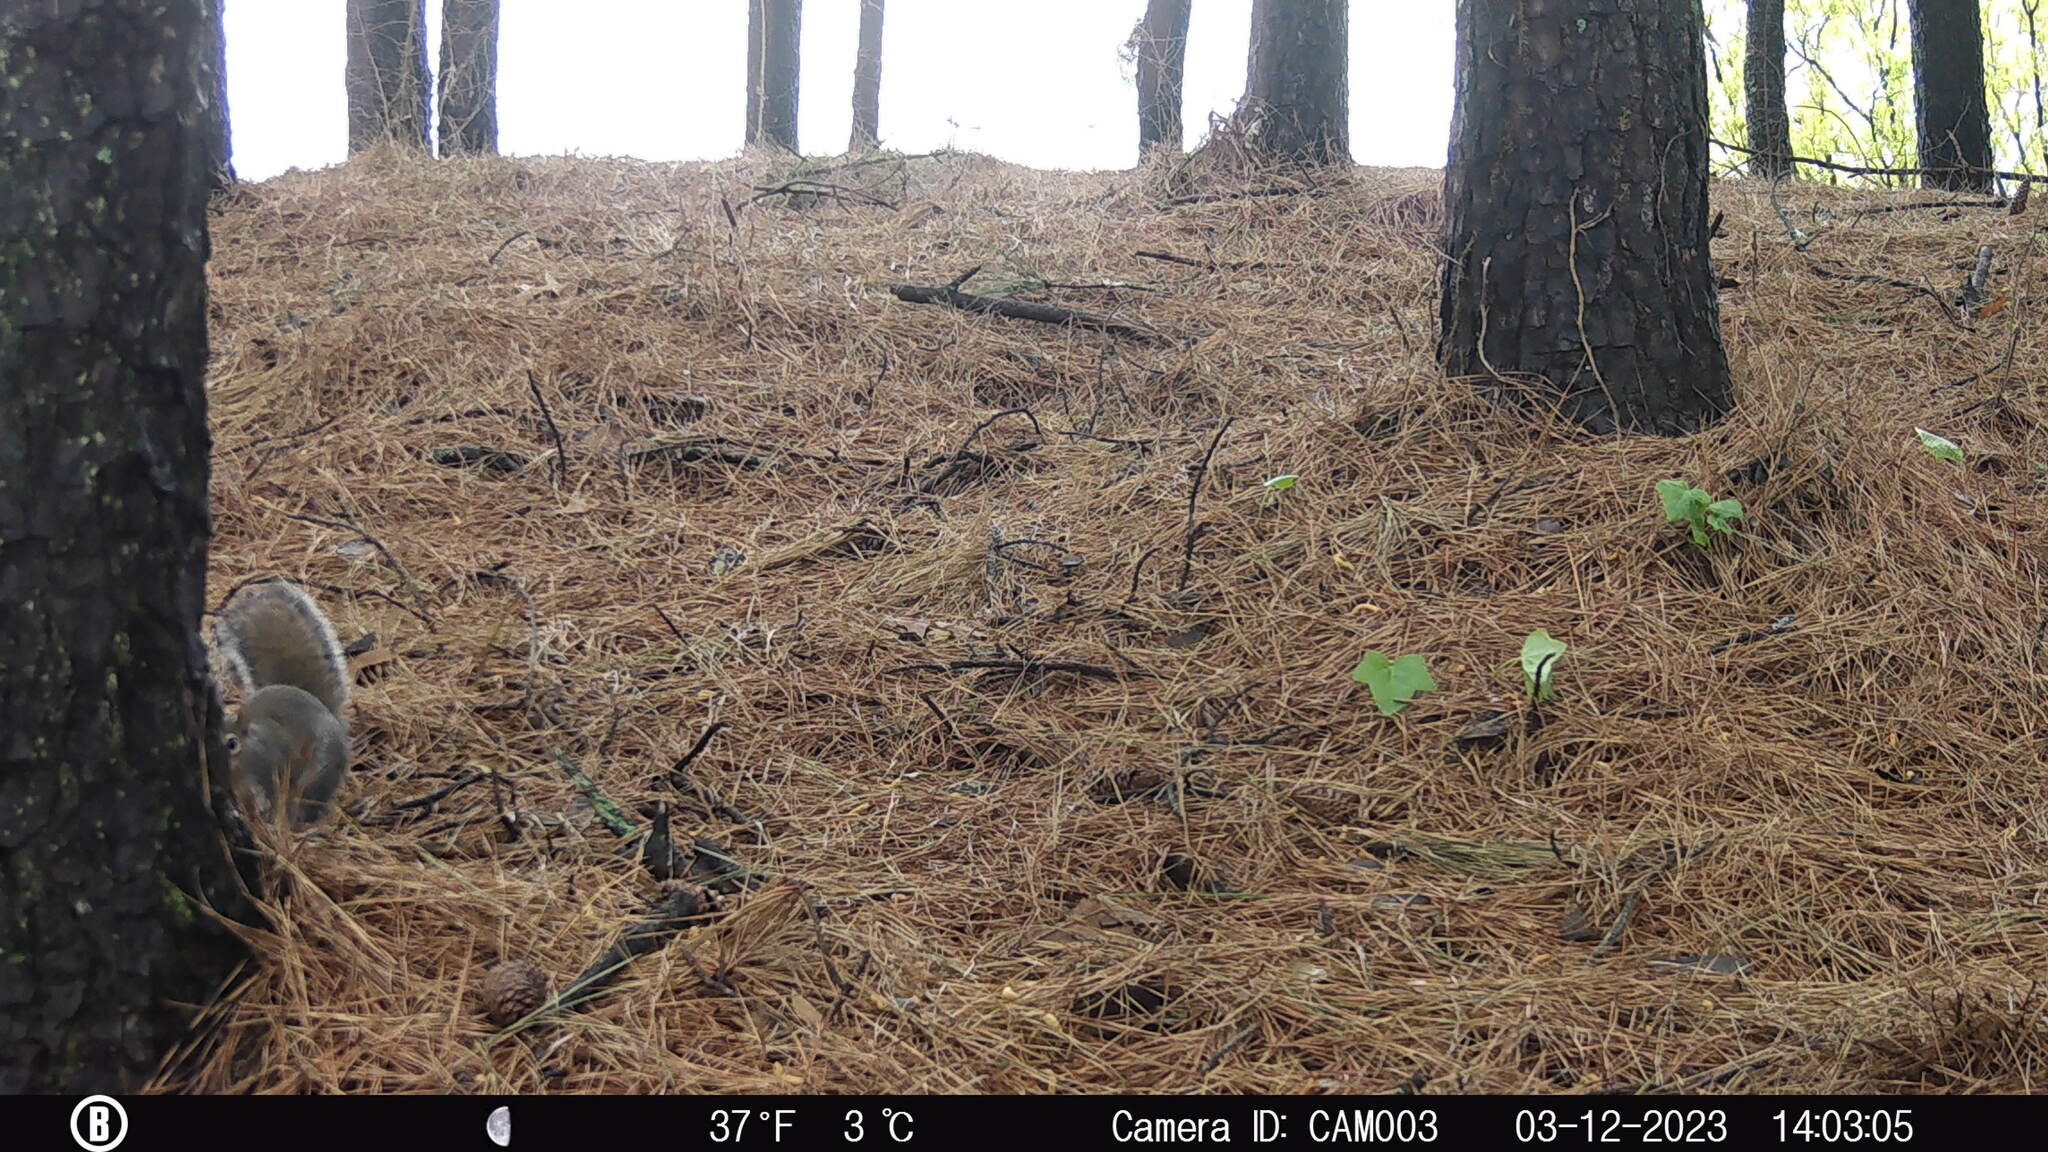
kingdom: Animalia
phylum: Chordata
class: Mammalia
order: Rodentia
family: Sciuridae
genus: Sciurus
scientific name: Sciurus carolinensis
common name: Eastern gray squirrel
